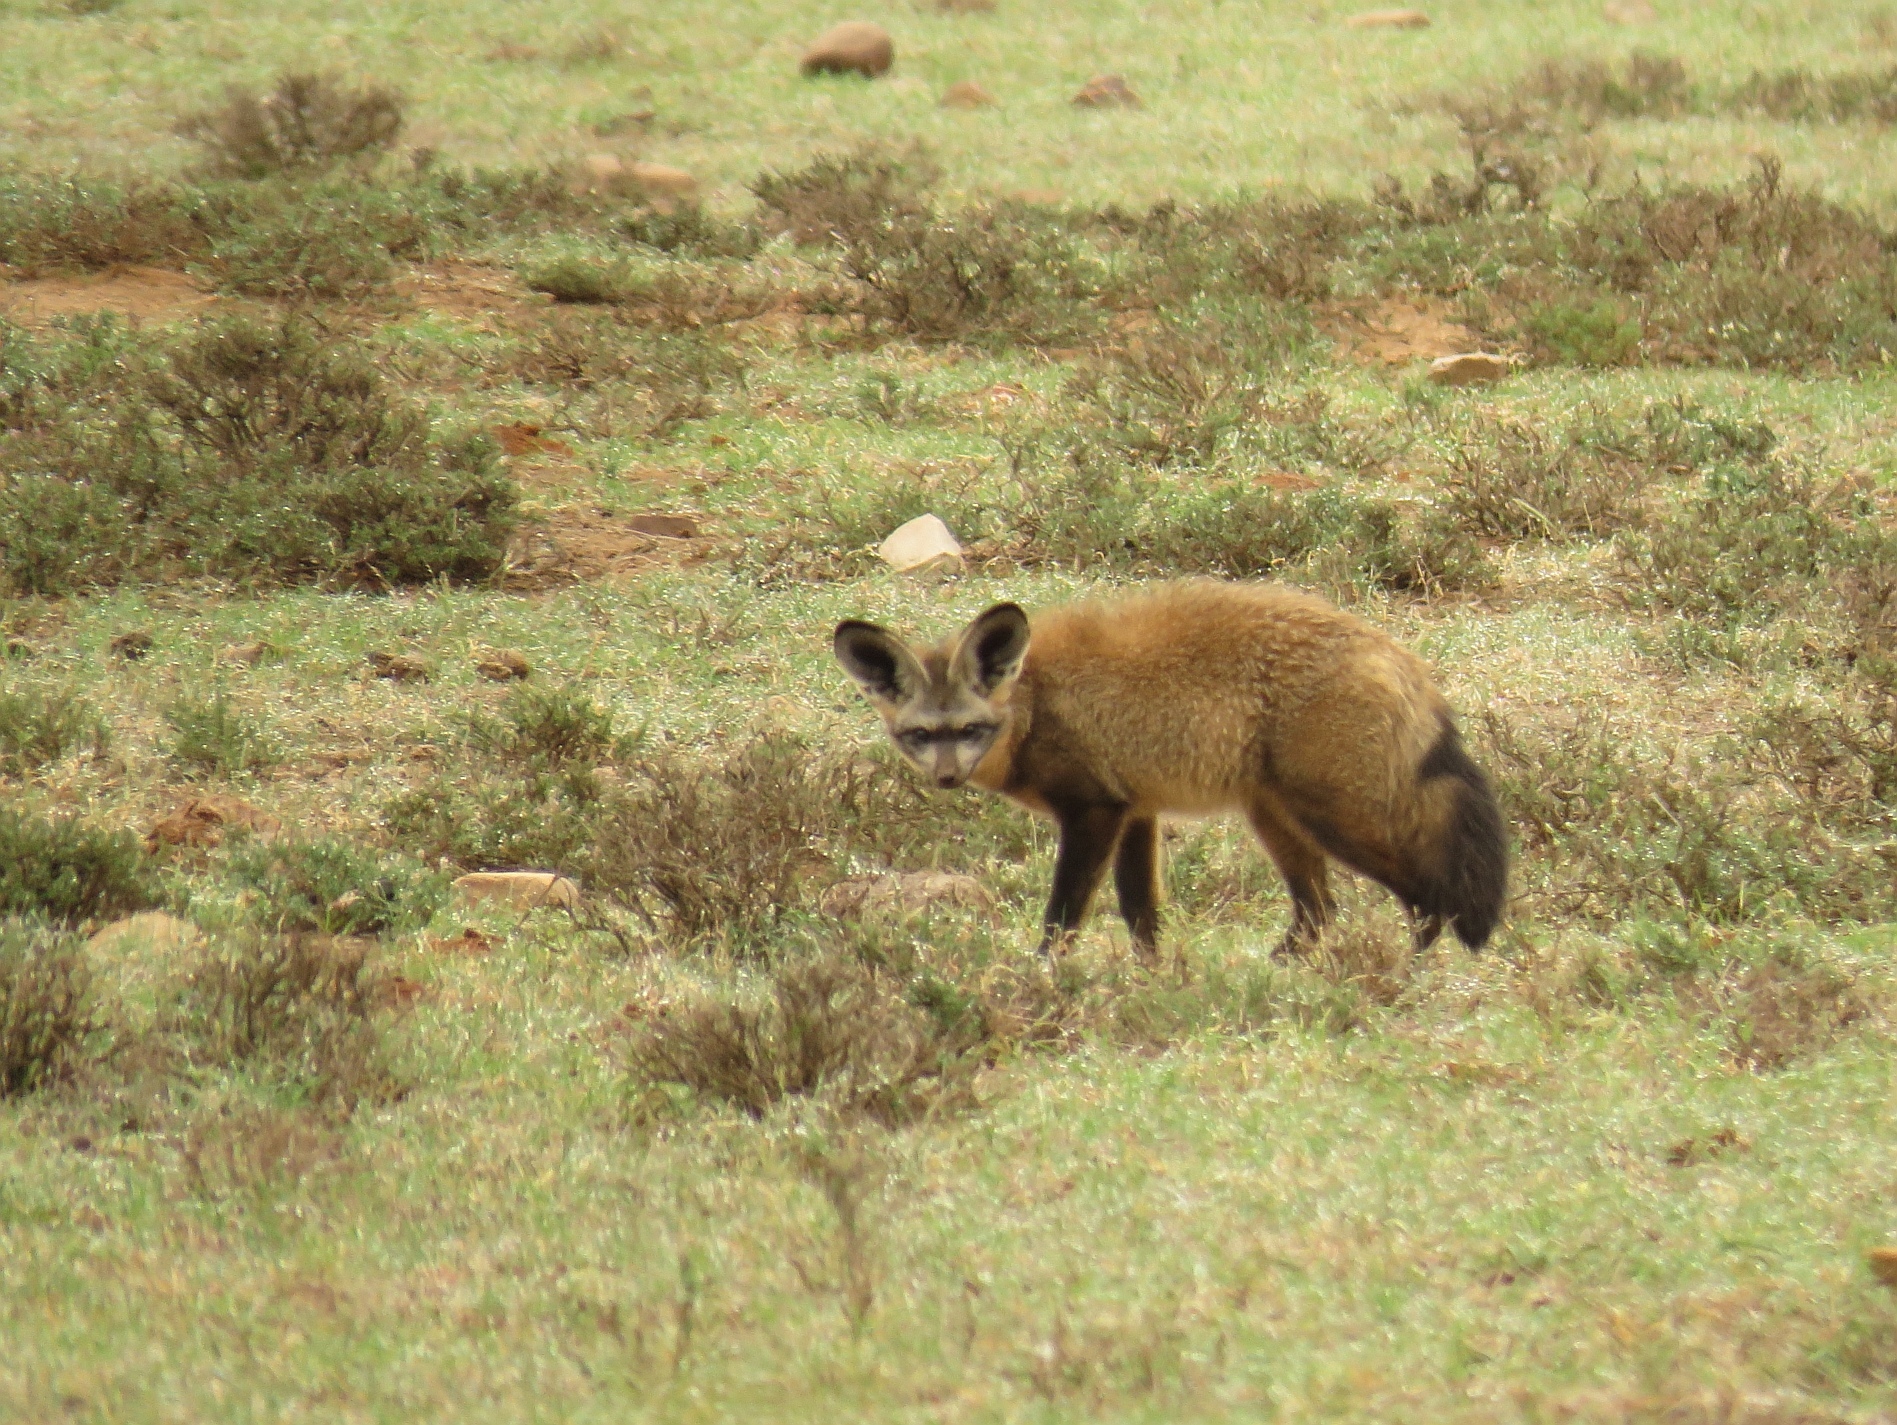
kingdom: Animalia
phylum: Chordata
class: Mammalia
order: Carnivora
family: Canidae
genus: Otocyon
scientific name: Otocyon megalotis
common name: Bat-eared fox
